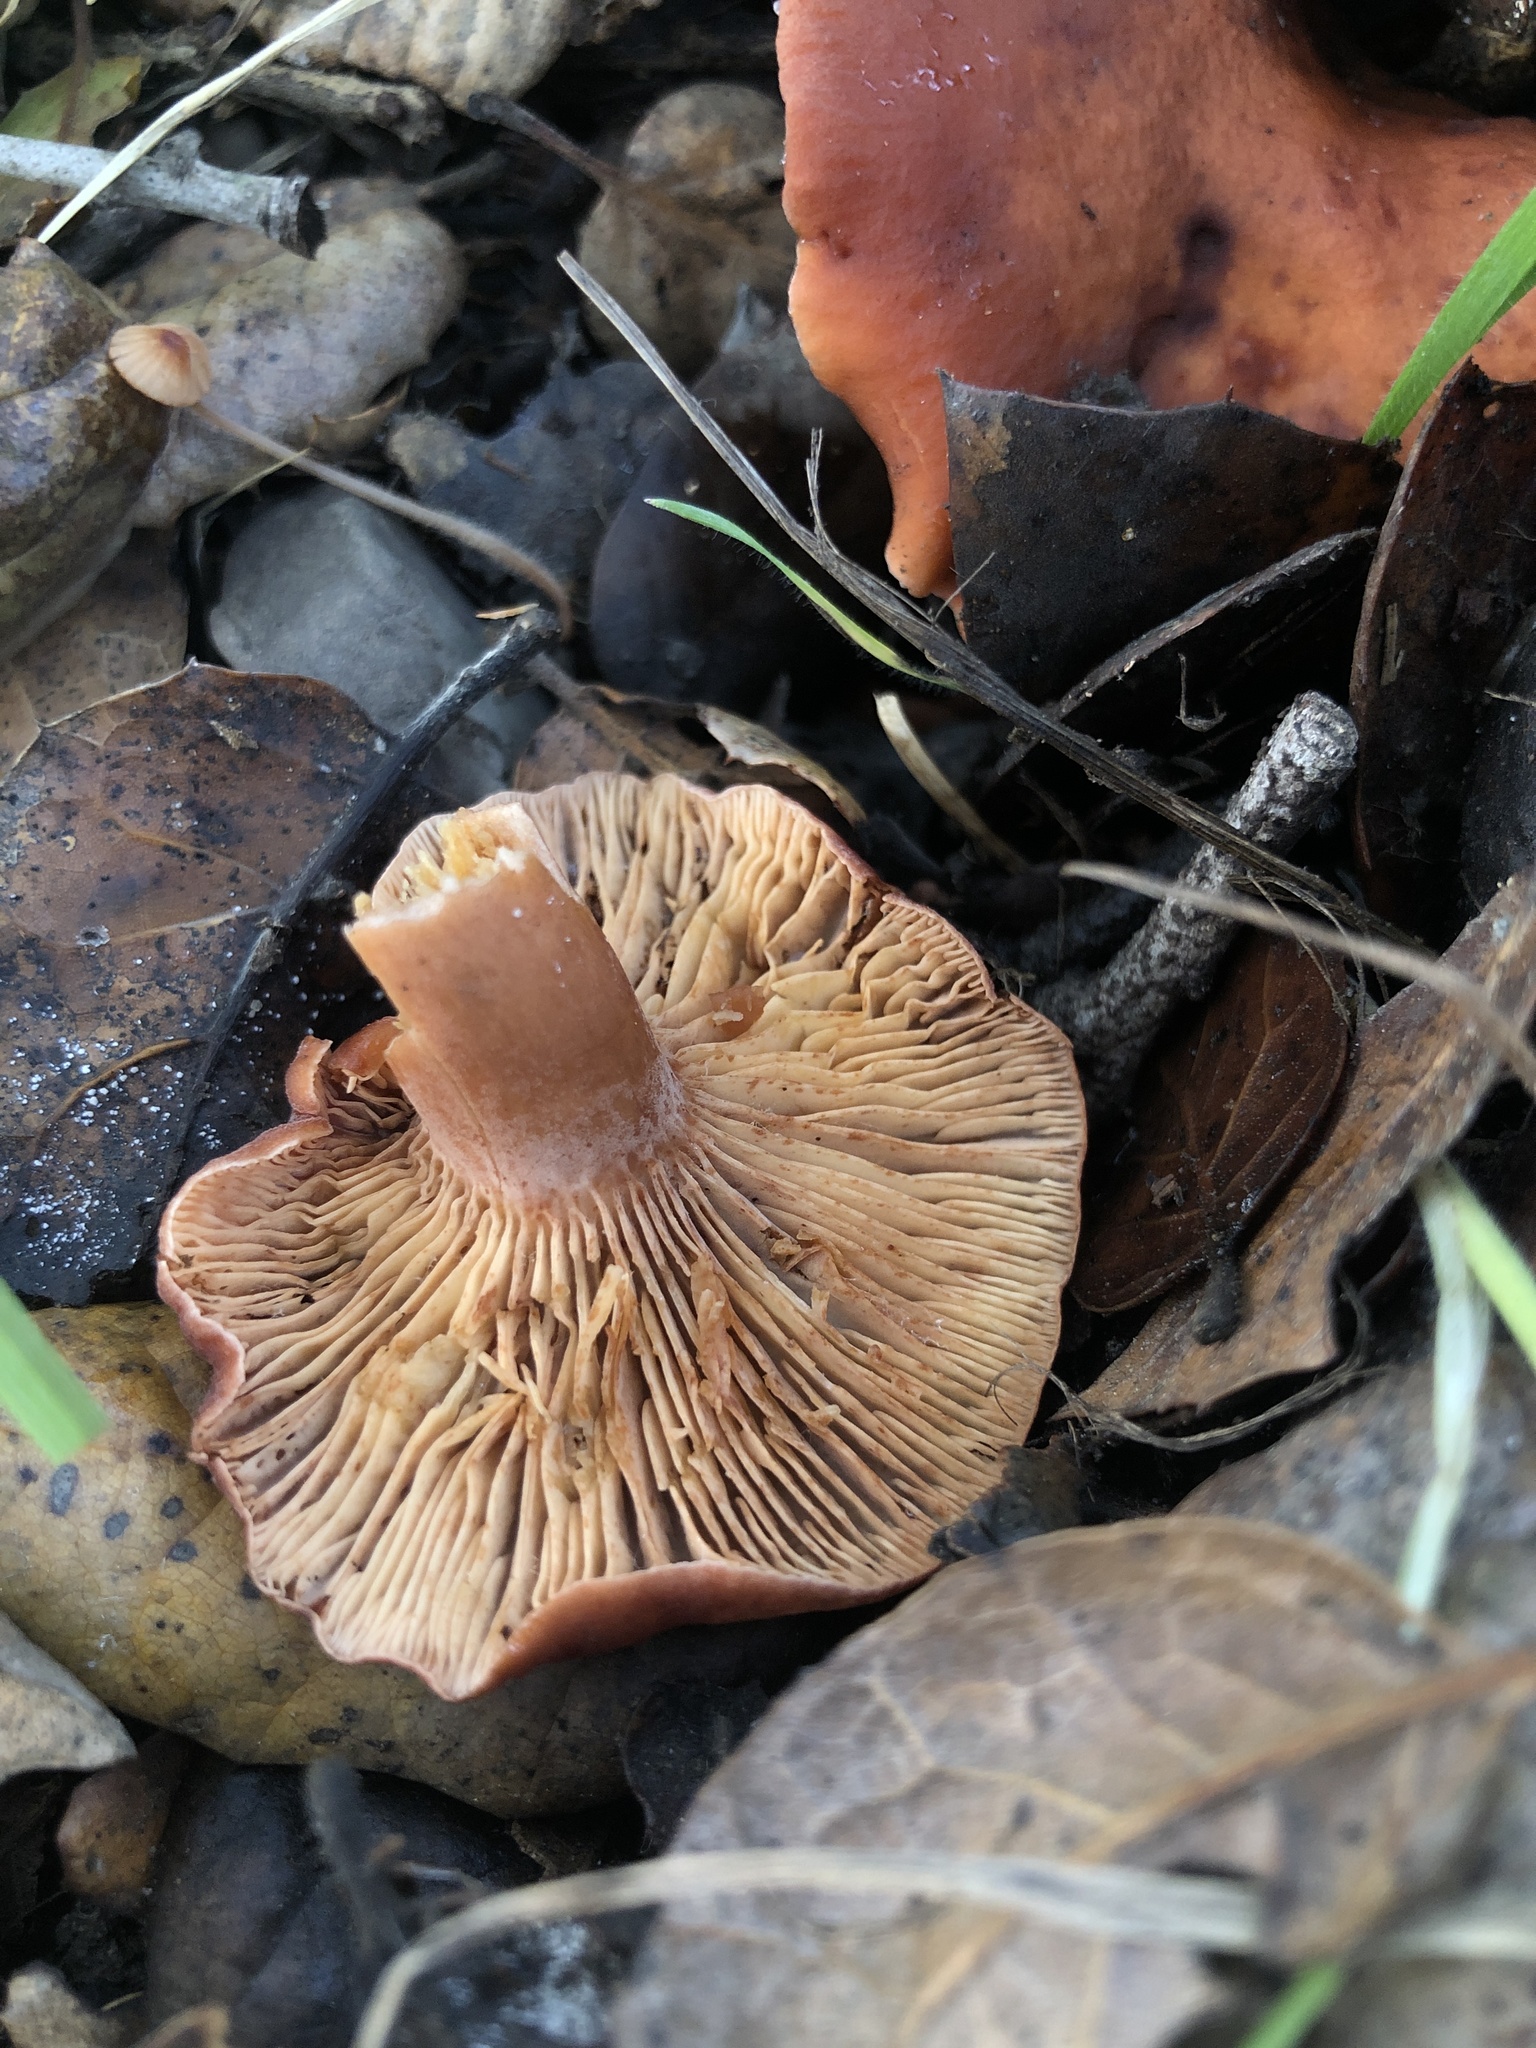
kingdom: Fungi
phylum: Basidiomycota
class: Agaricomycetes
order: Russulales
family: Russulaceae
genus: Lactarius
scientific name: Lactarius rufulus
